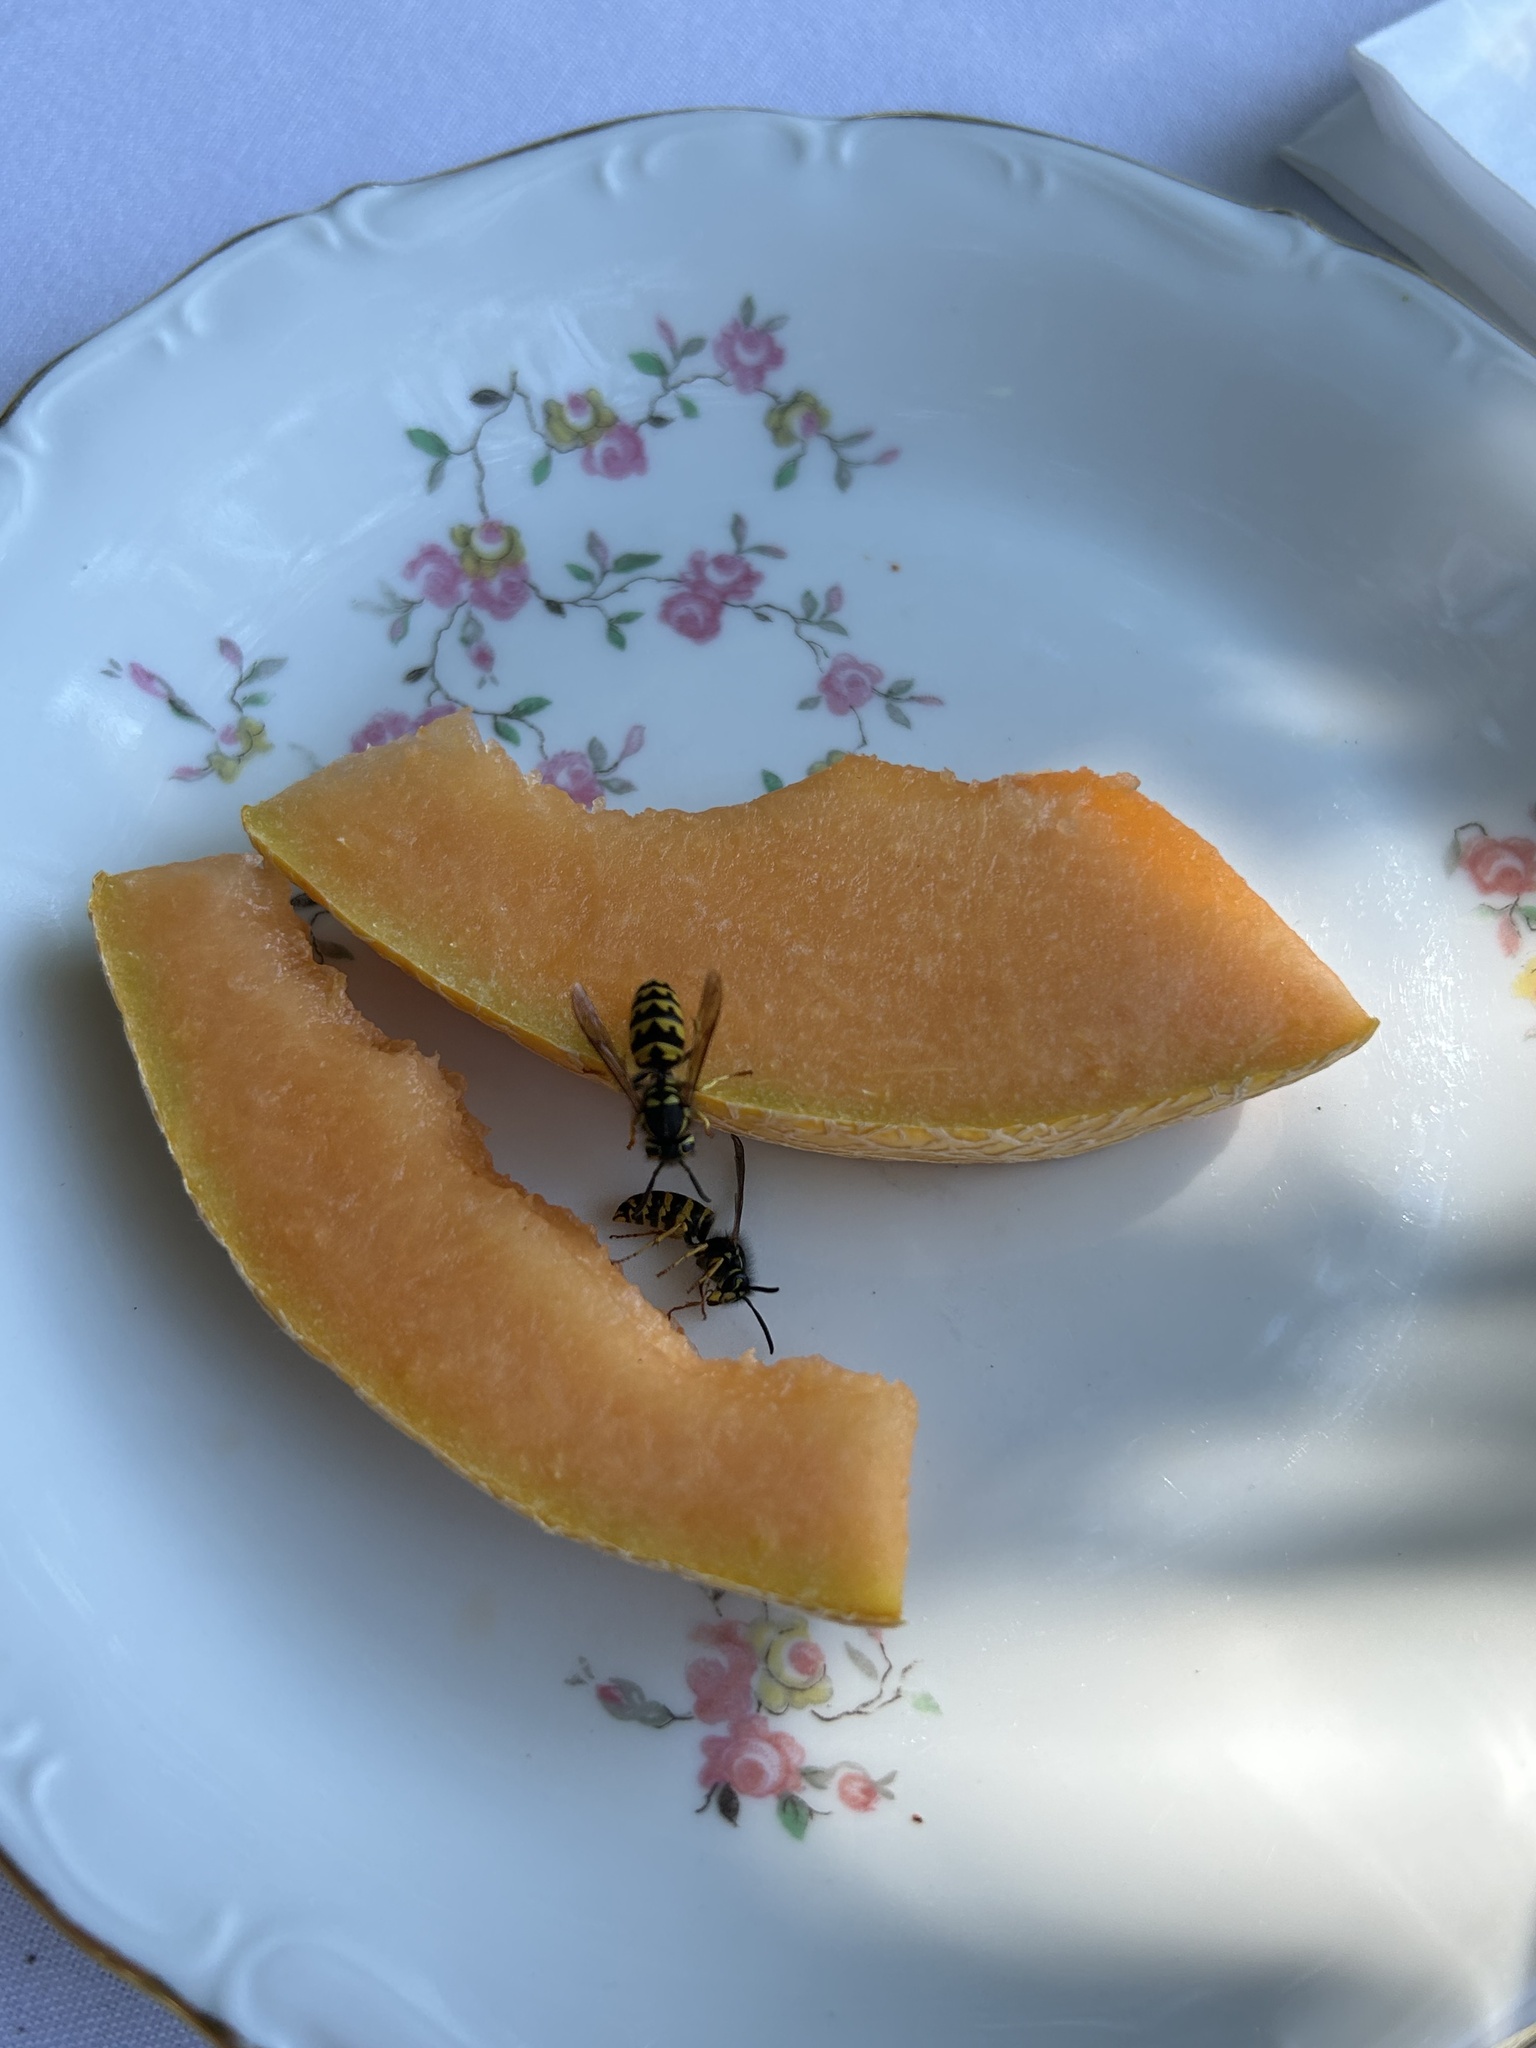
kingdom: Animalia
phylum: Arthropoda
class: Insecta
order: Hymenoptera
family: Vespidae
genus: Vespula
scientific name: Vespula alascensis
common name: Alaska yellowjacket
